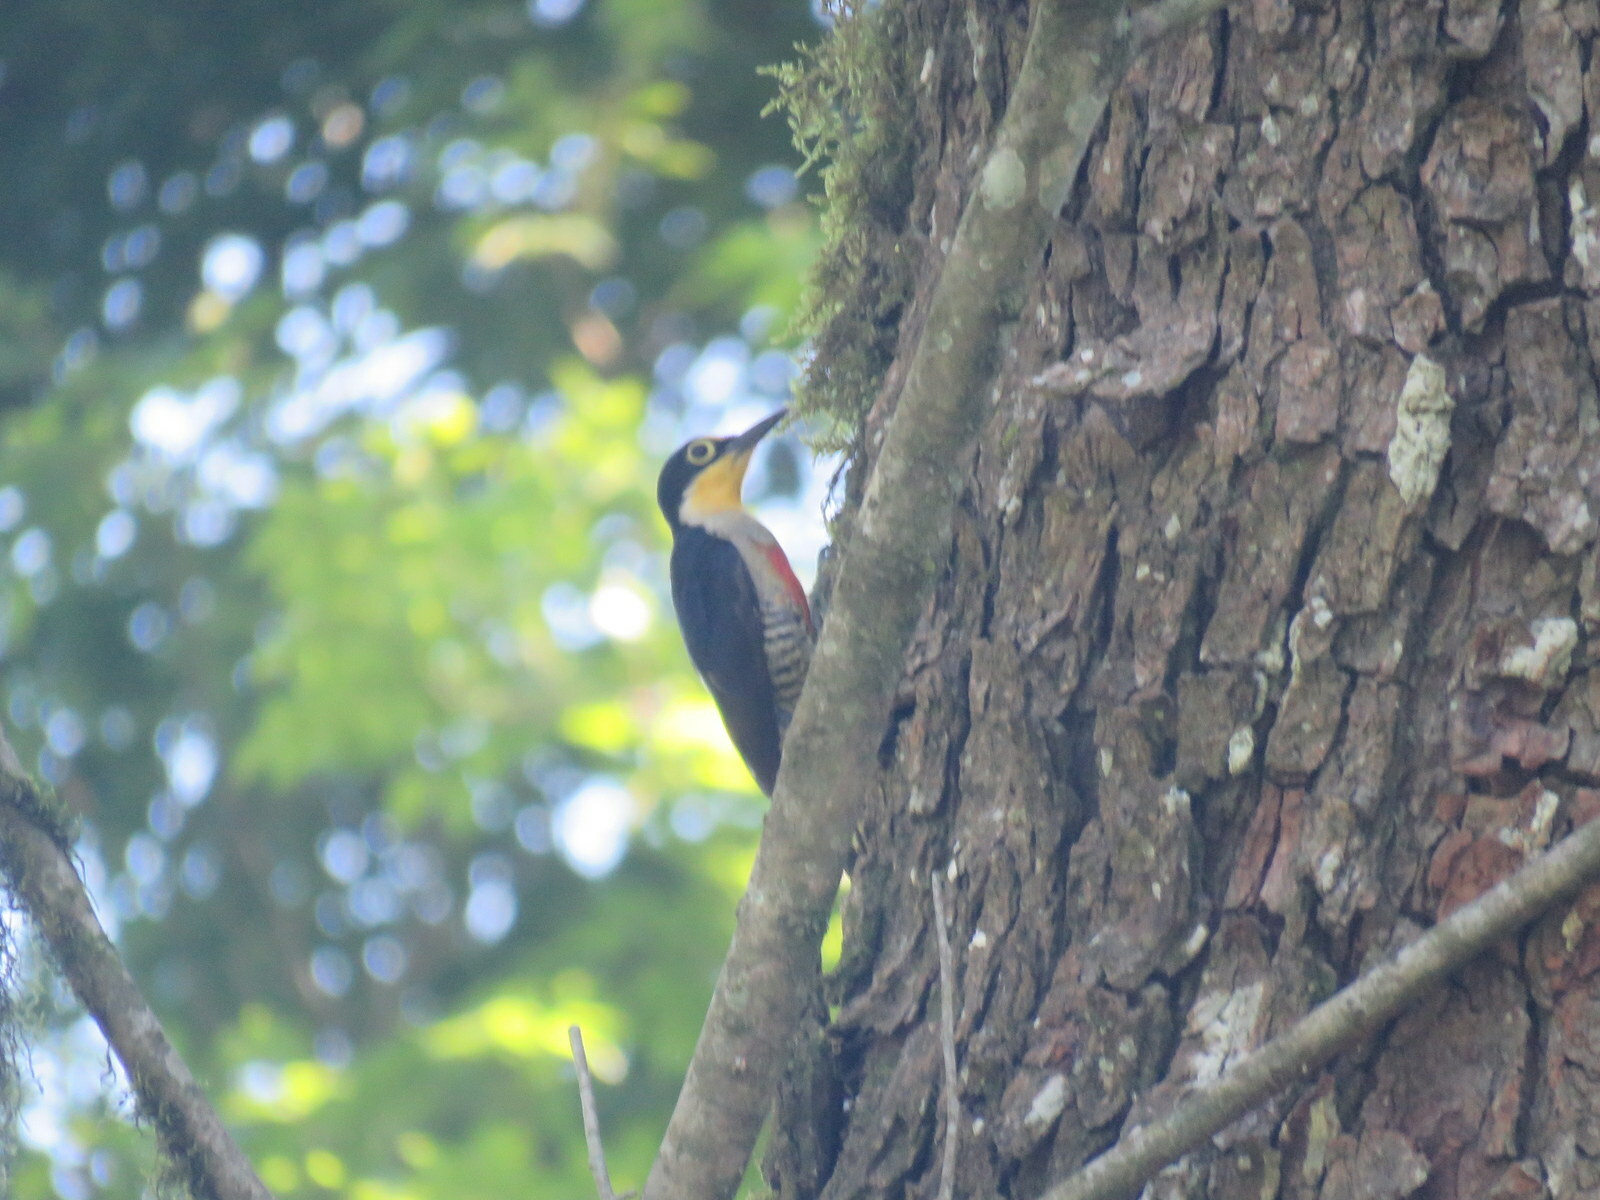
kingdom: Animalia
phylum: Chordata
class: Aves
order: Piciformes
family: Picidae
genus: Melanerpes
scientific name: Melanerpes flavifrons
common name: Yellow-fronted woodpecker
